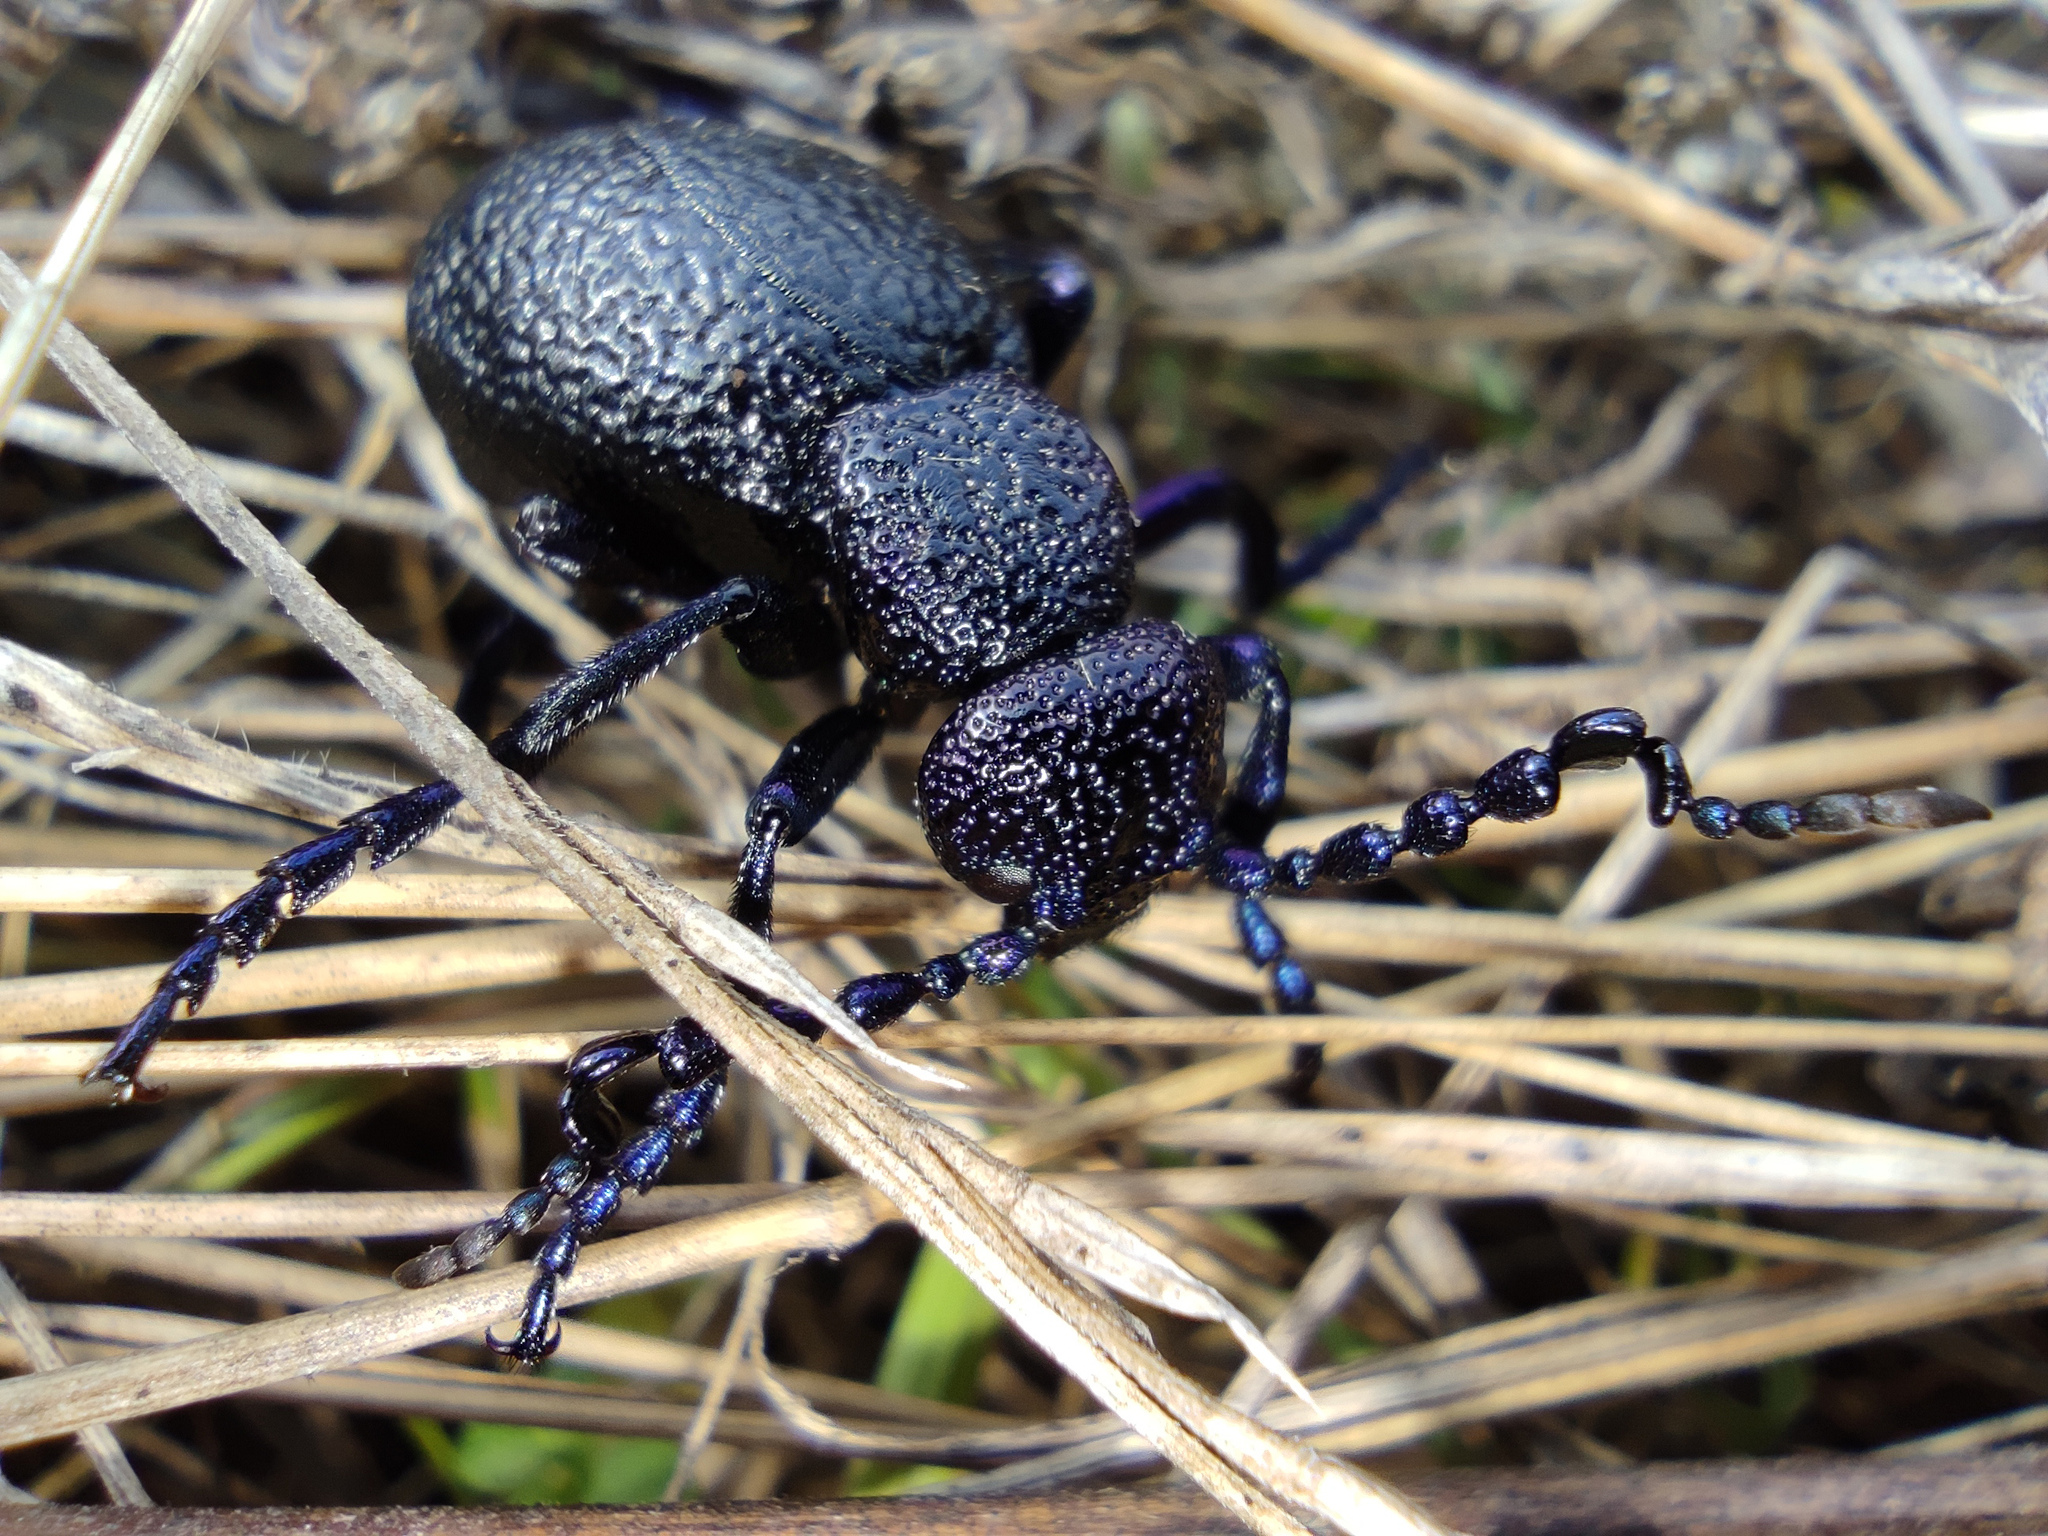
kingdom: Animalia
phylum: Arthropoda
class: Insecta
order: Coleoptera
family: Meloidae
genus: Meloe
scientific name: Meloe proscarabaeus
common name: Black oil-beetle
